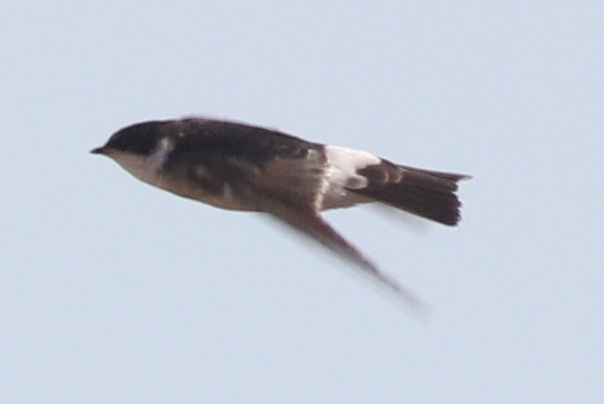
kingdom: Animalia
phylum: Chordata
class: Aves
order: Passeriformes
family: Hirundinidae
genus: Tachycineta
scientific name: Tachycineta leucopyga
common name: Chilean swallow
